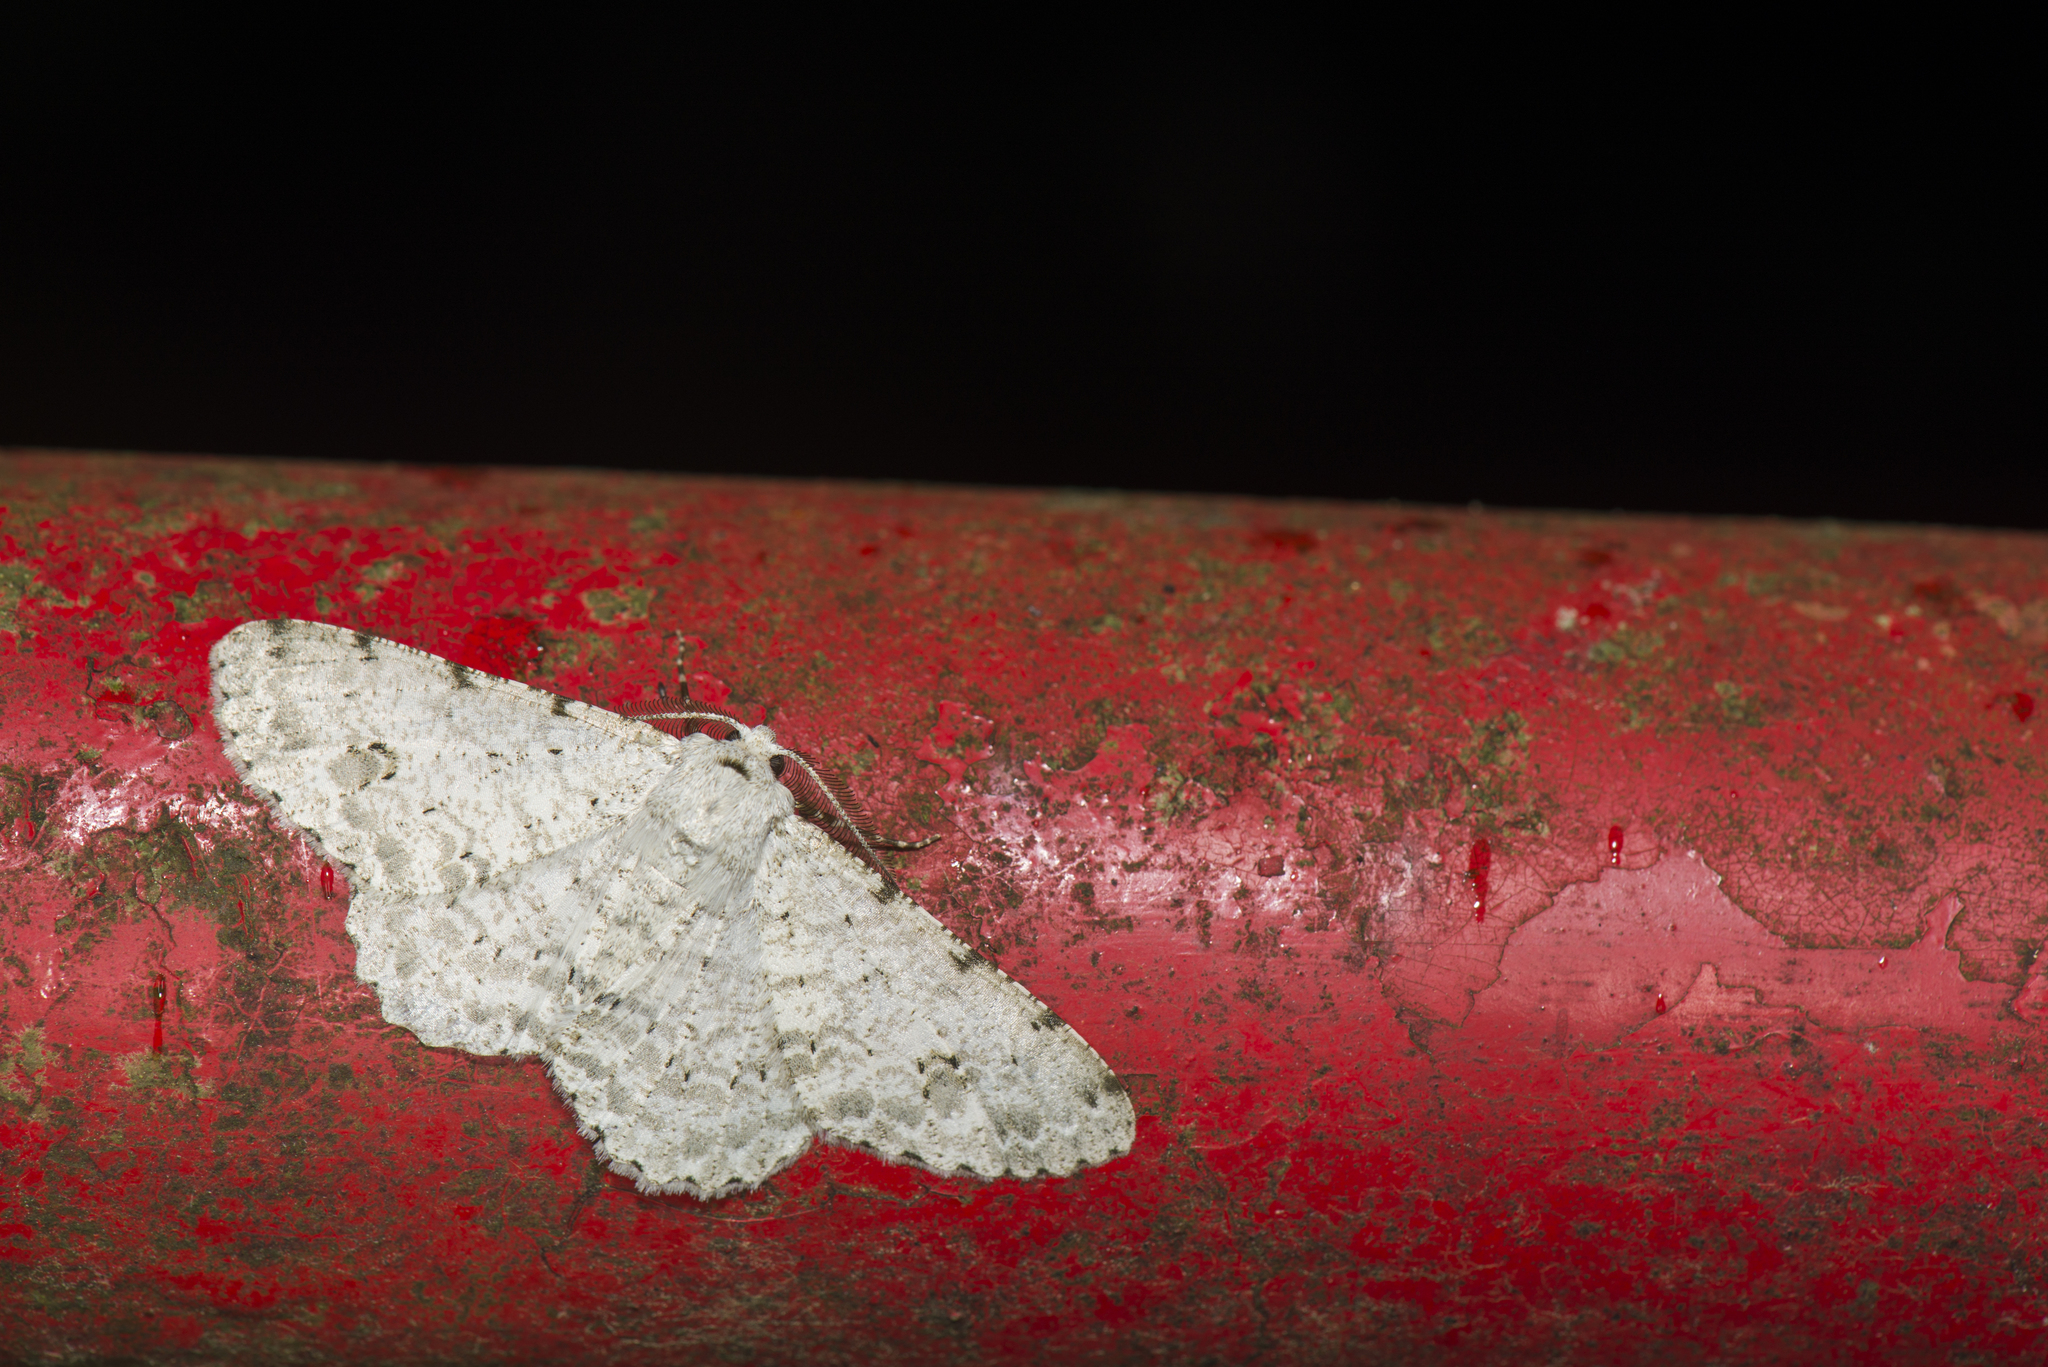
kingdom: Animalia
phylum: Arthropoda
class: Insecta
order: Lepidoptera
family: Geometridae
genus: Lassaba
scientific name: Lassaba parvalbidaria
